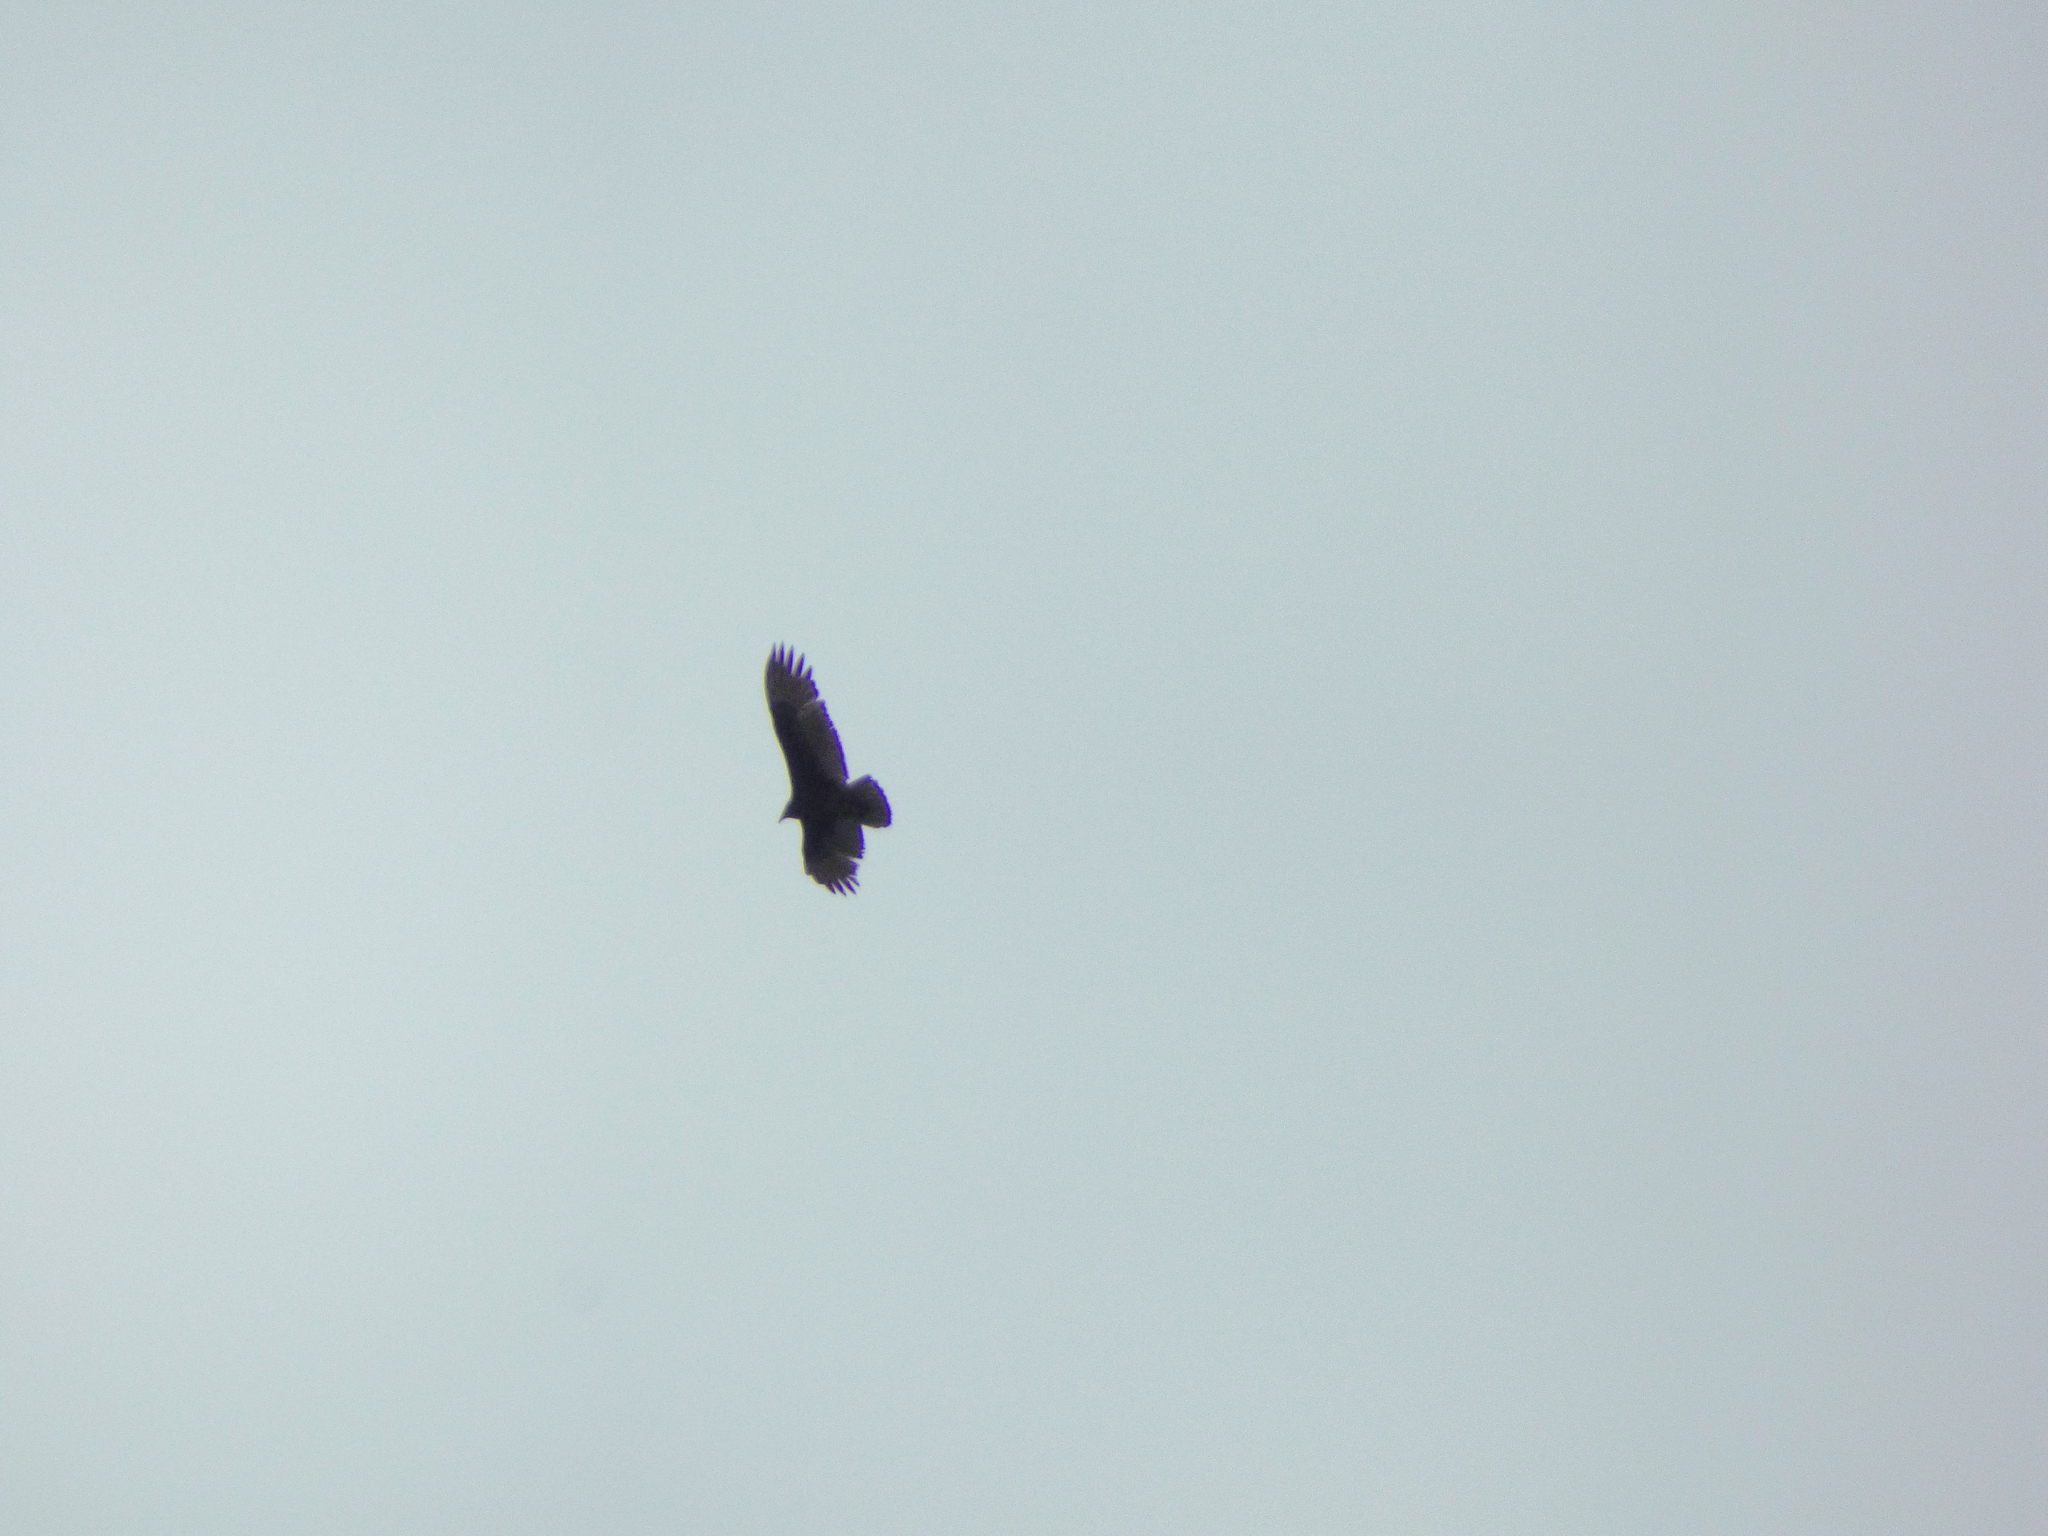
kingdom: Animalia
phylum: Chordata
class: Aves
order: Accipitriformes
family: Cathartidae
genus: Cathartes
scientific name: Cathartes aura
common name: Turkey vulture
